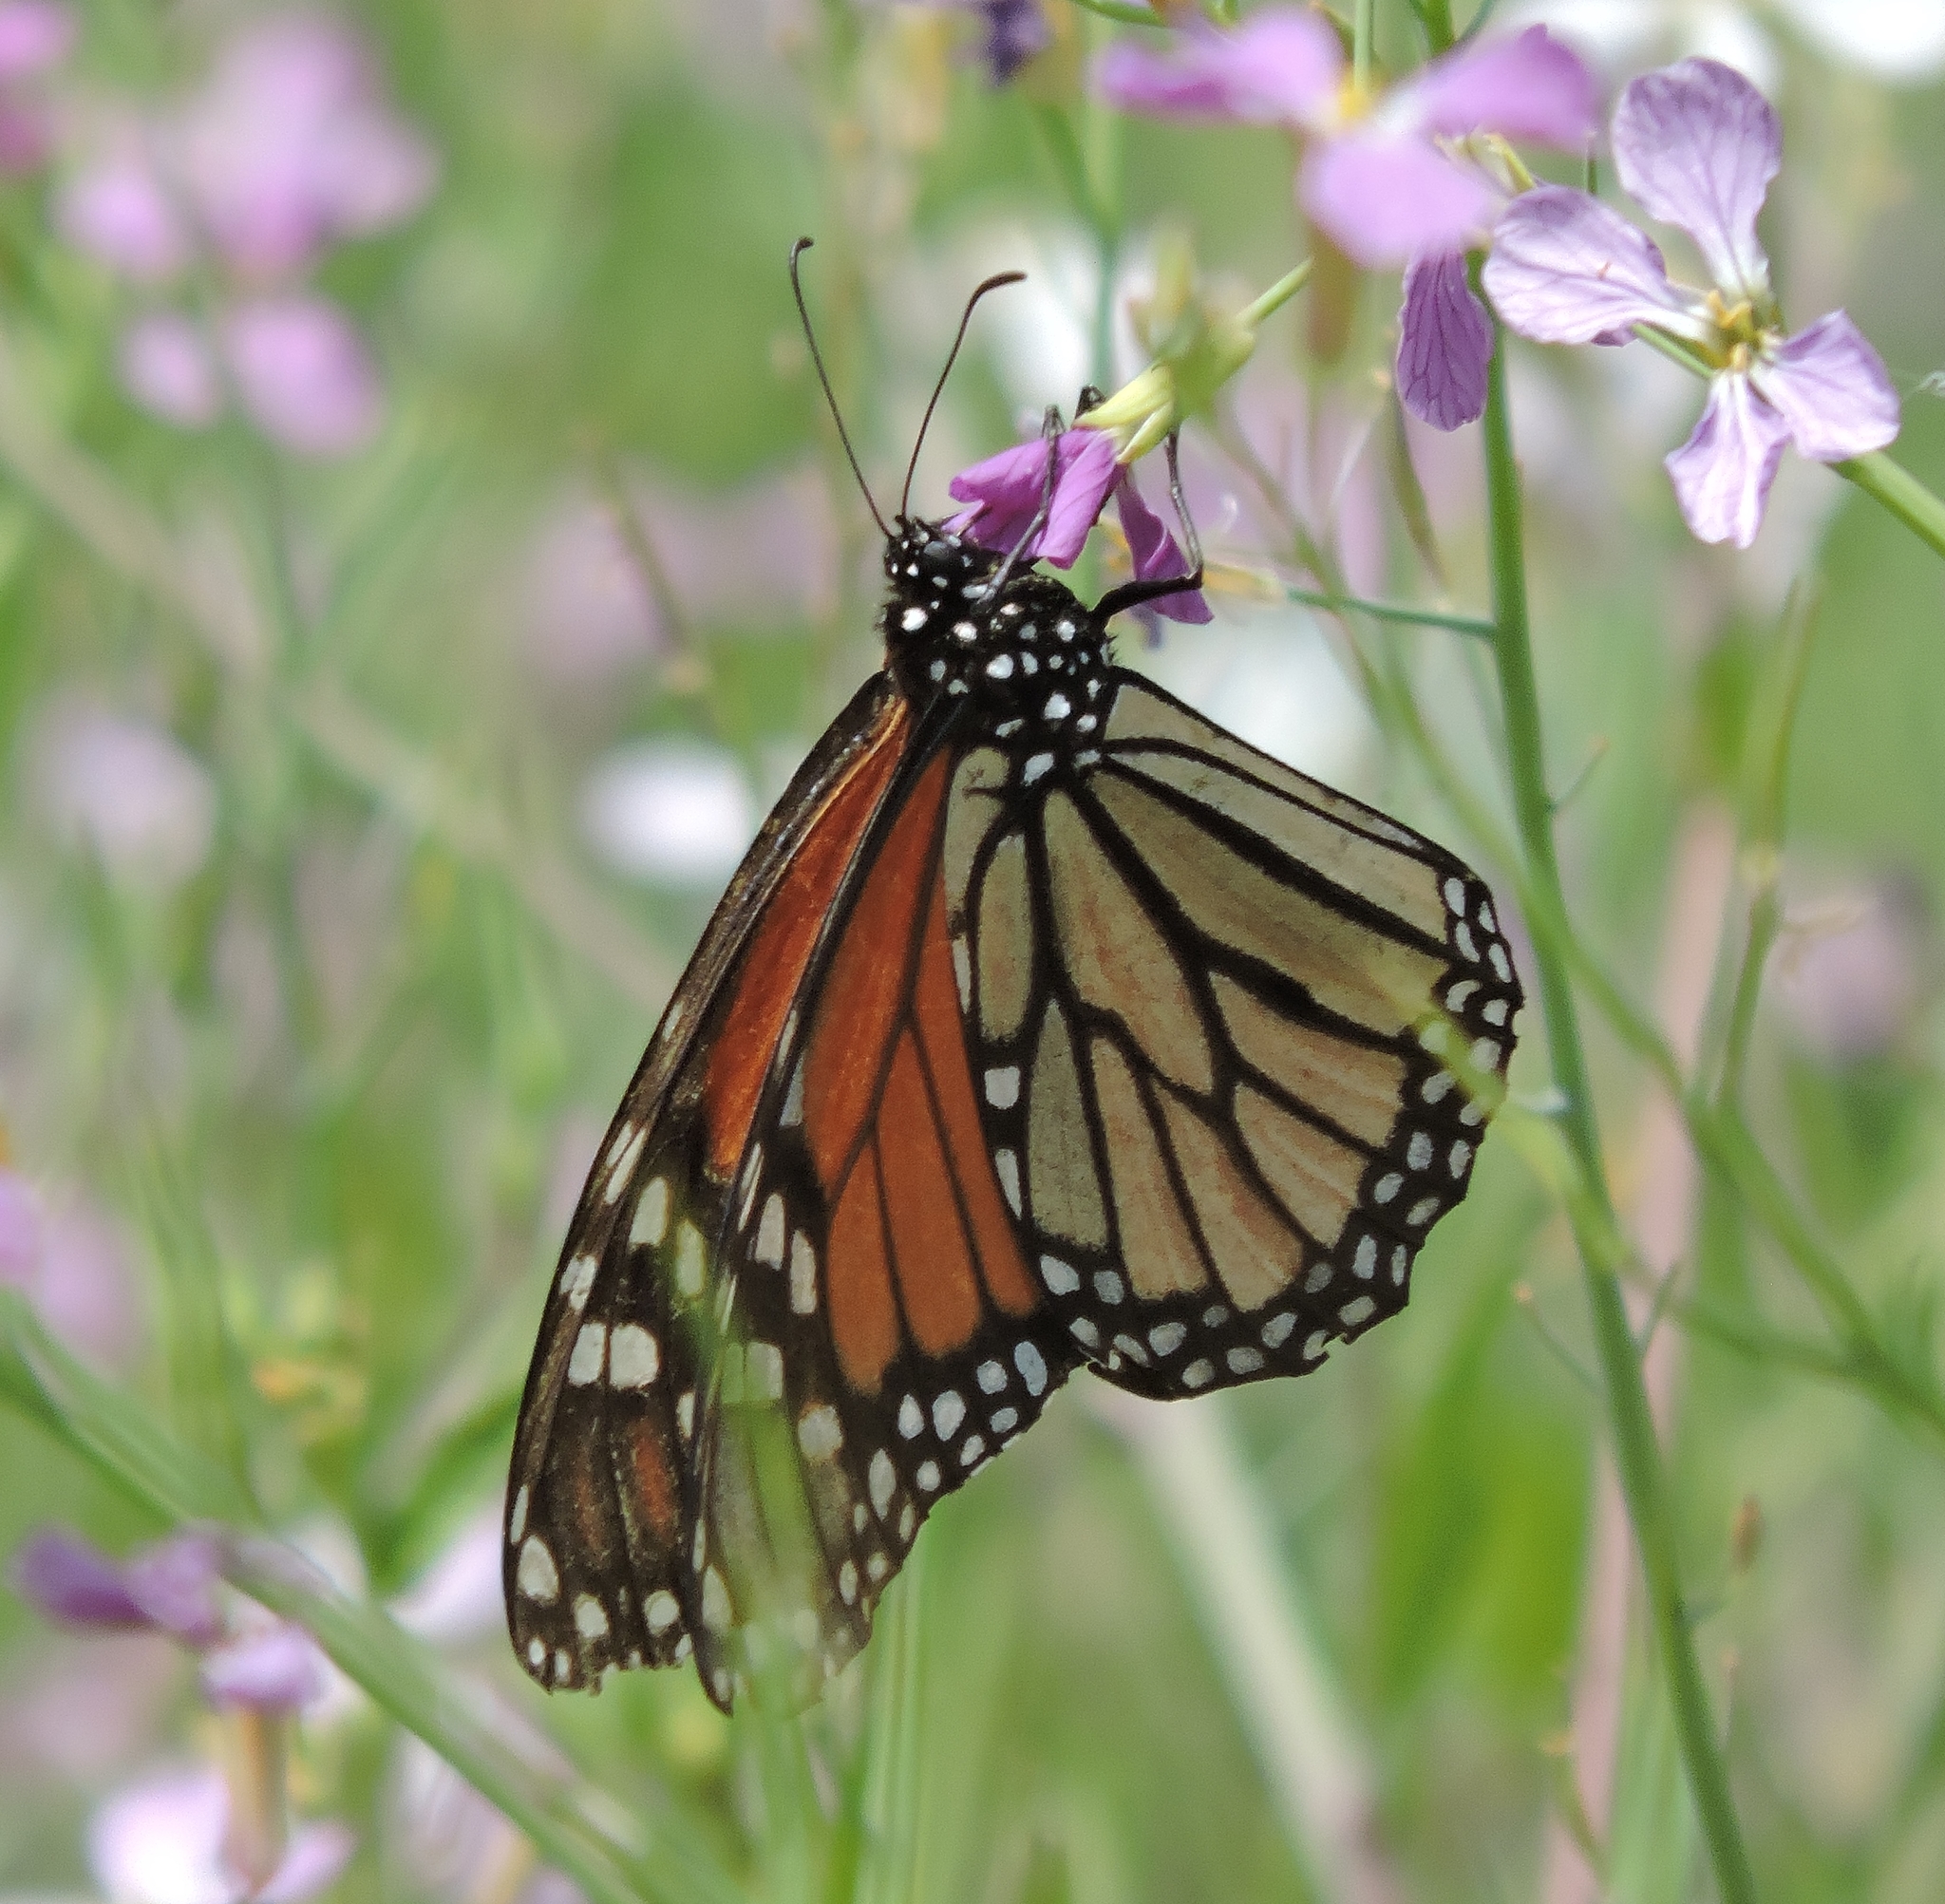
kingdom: Animalia
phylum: Arthropoda
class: Insecta
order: Lepidoptera
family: Nymphalidae
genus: Danaus
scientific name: Danaus plexippus
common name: Monarch
